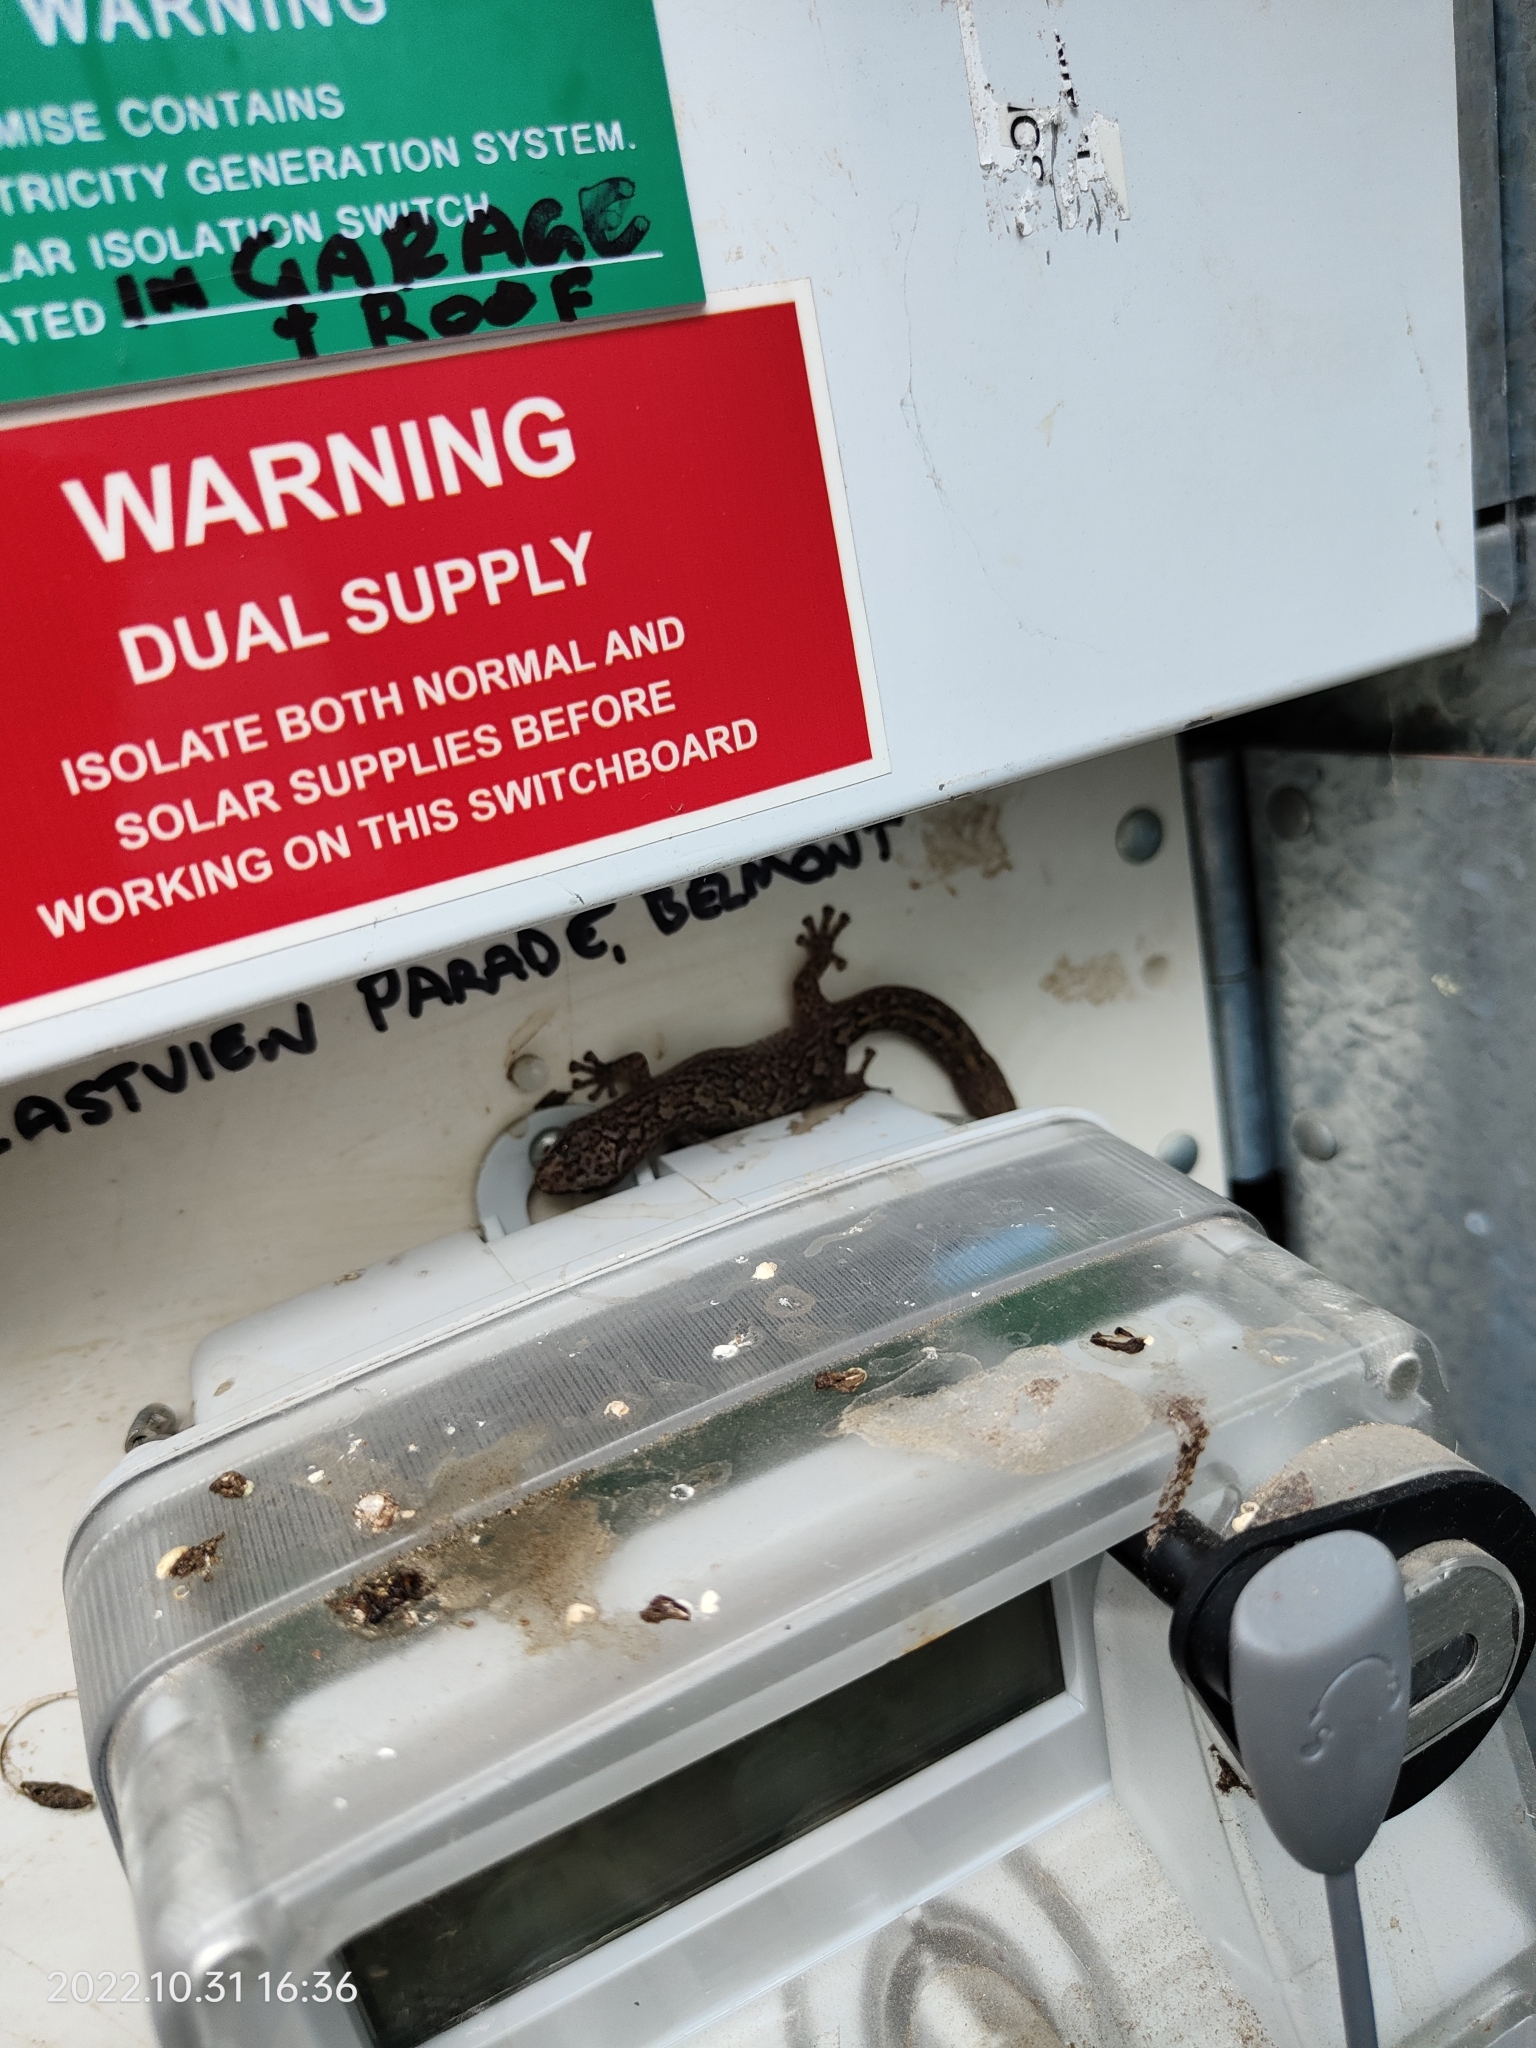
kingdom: Animalia
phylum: Chordata
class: Squamata
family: Gekkonidae
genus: Christinus
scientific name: Christinus marmoratus
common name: Marbled gecko
